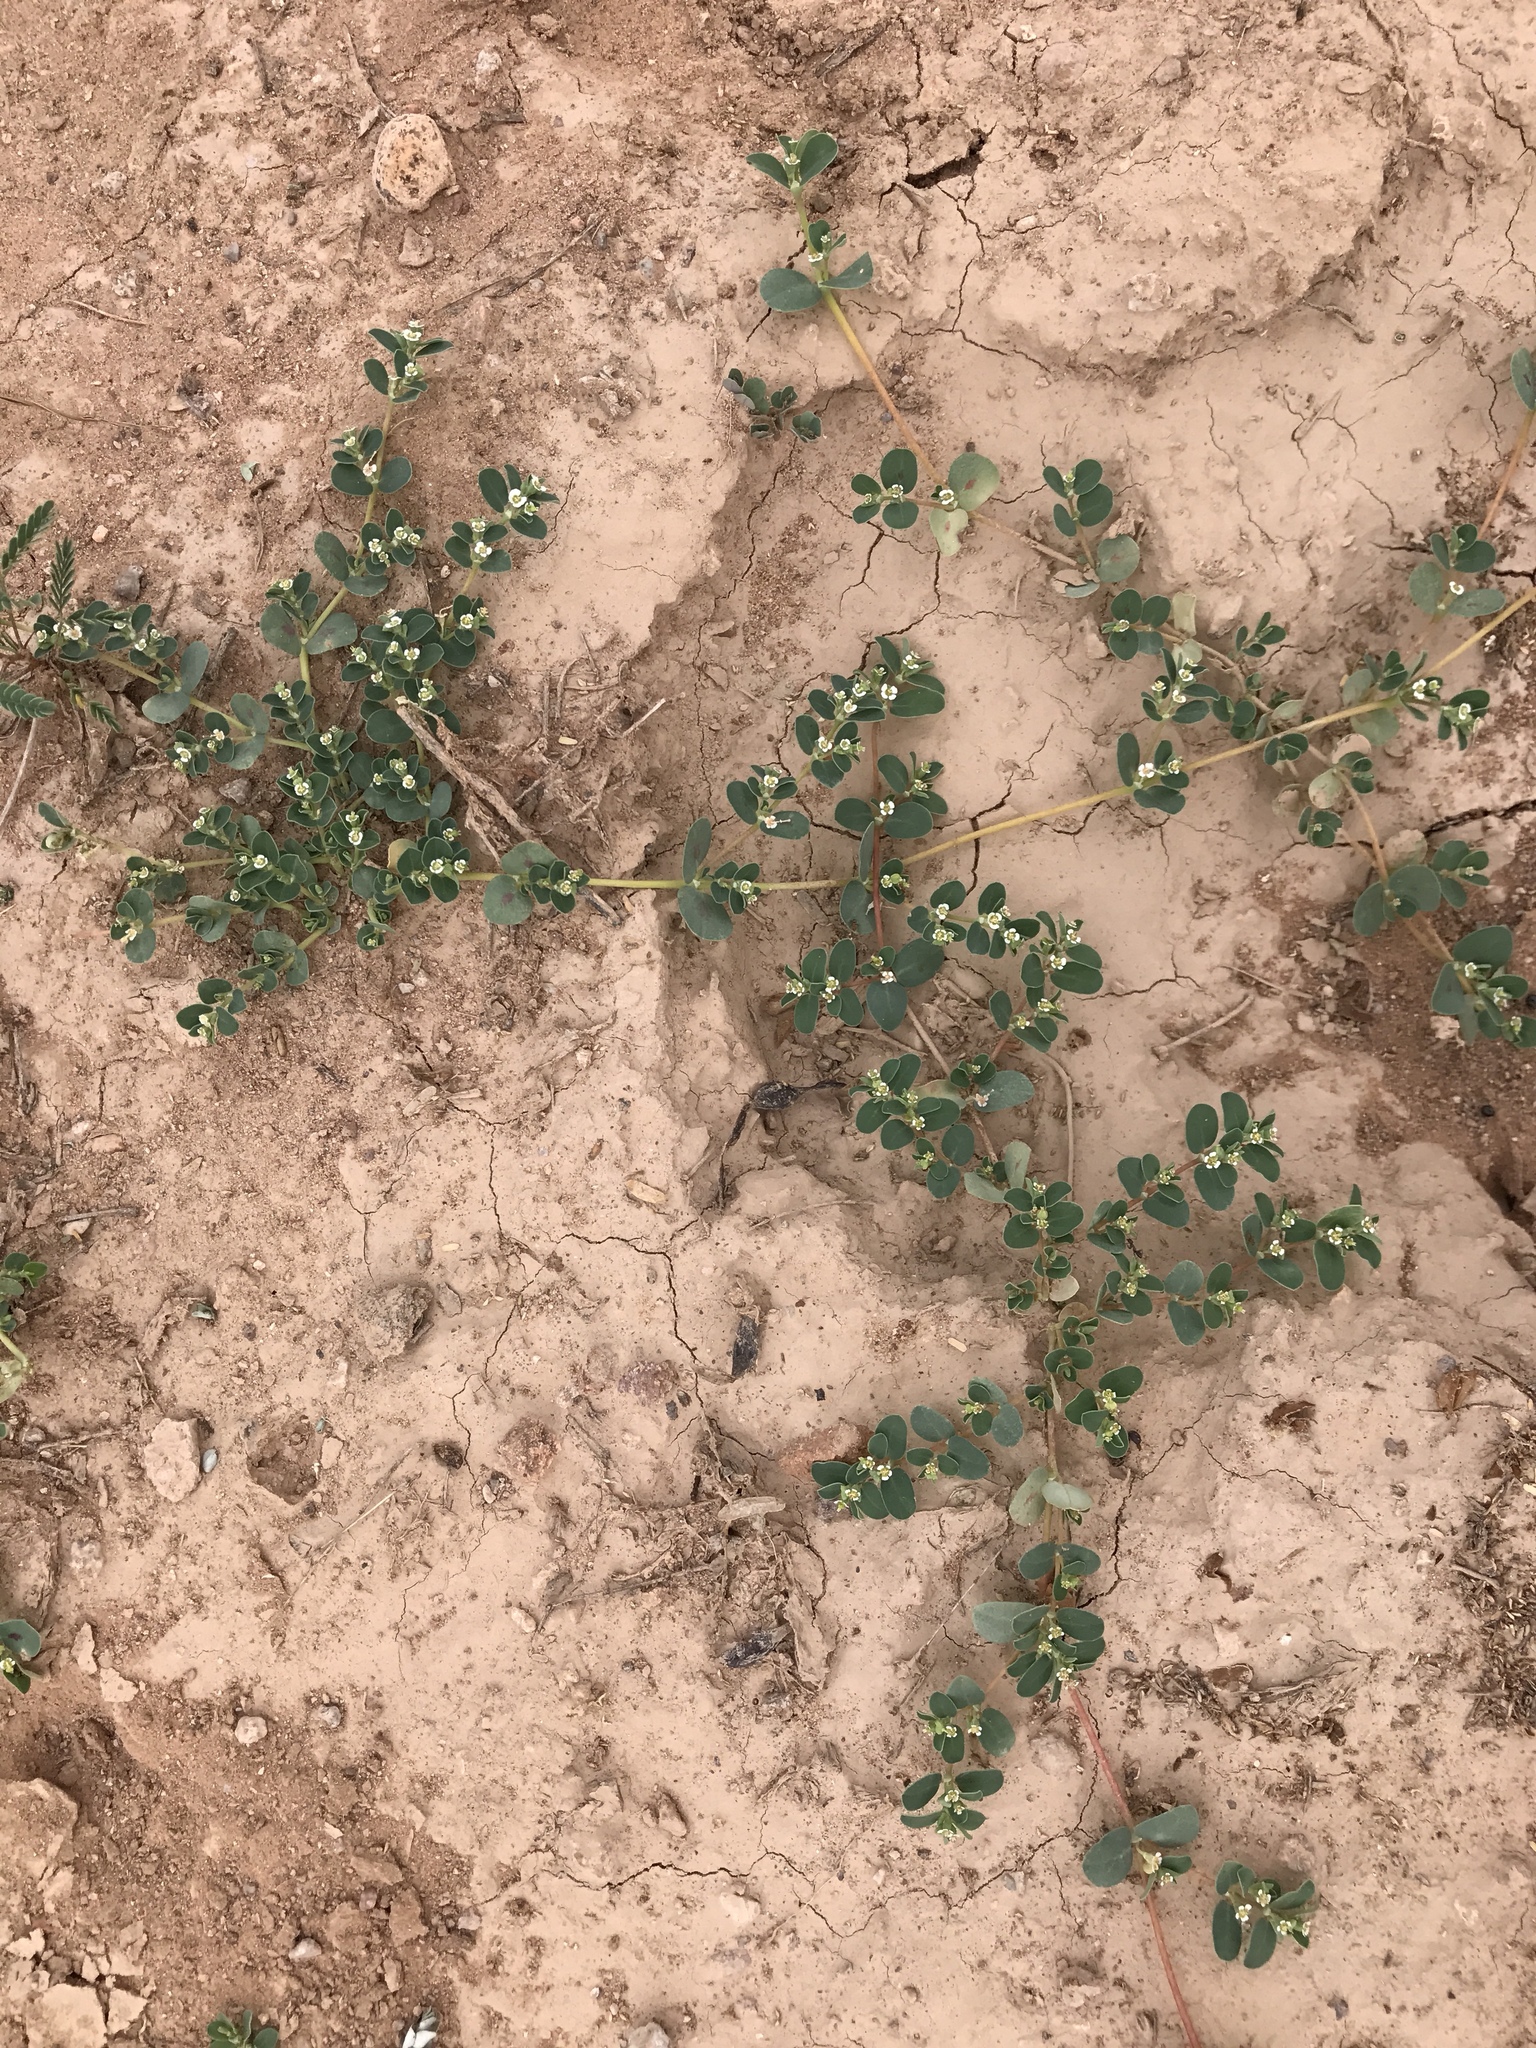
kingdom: Plantae
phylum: Tracheophyta
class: Magnoliopsida
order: Malpighiales
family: Euphorbiaceae
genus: Euphorbia
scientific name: Euphorbia albomarginata
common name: Whitemargin sandmat
